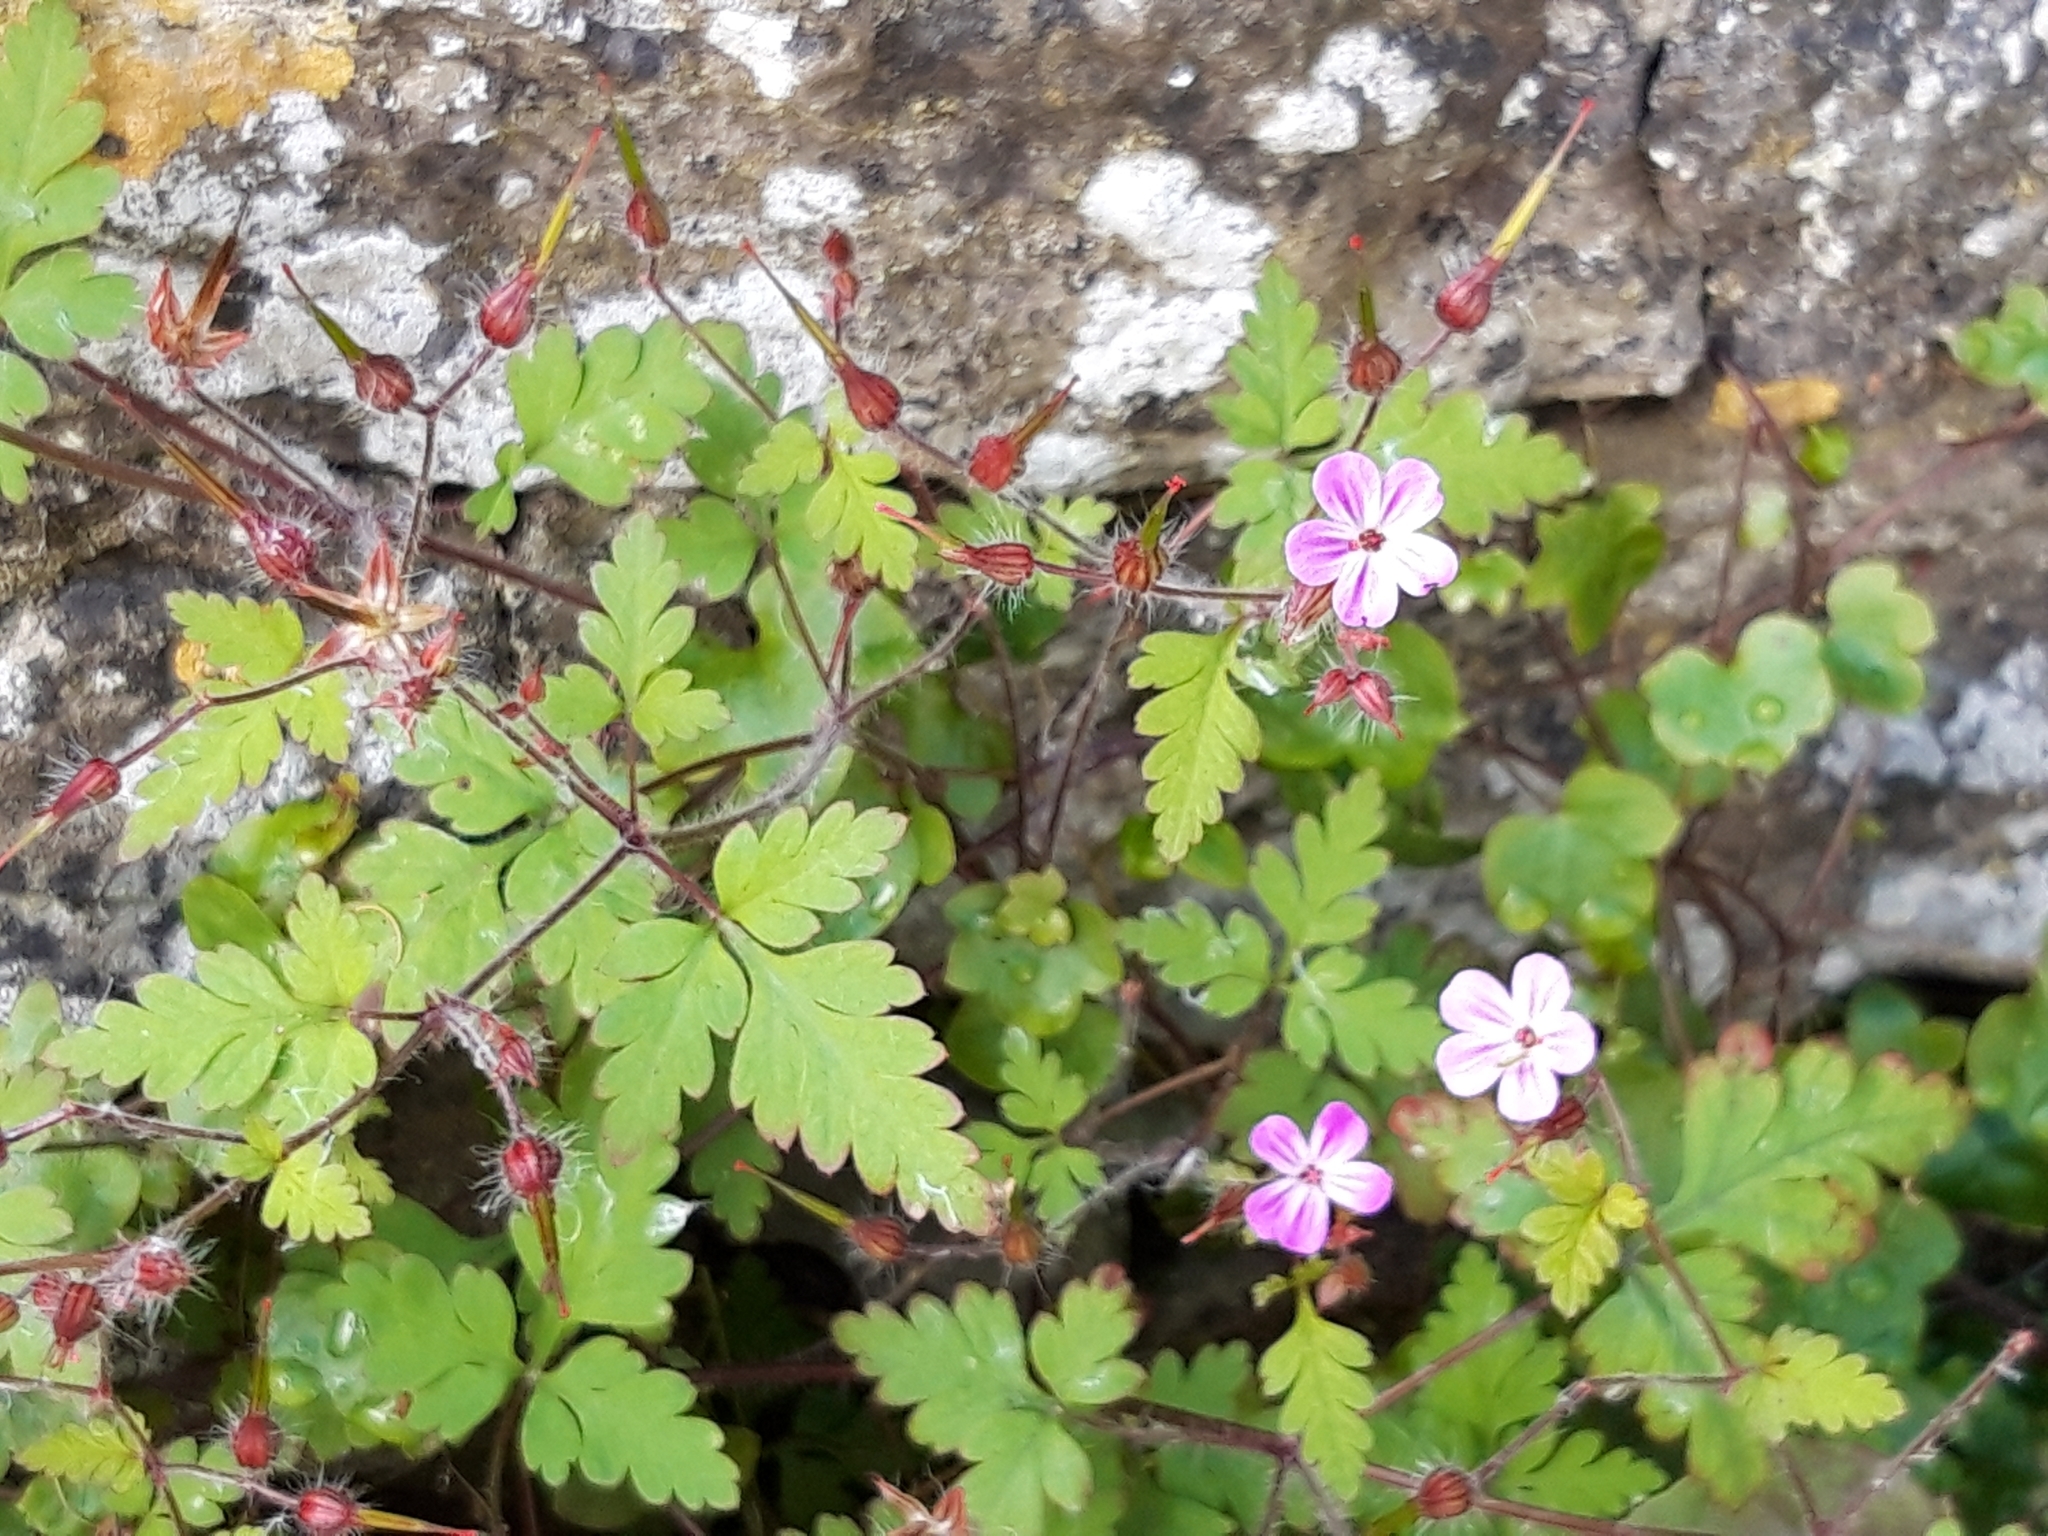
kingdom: Plantae
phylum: Tracheophyta
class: Magnoliopsida
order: Geraniales
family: Geraniaceae
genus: Geranium
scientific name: Geranium robertianum
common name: Herb-robert
